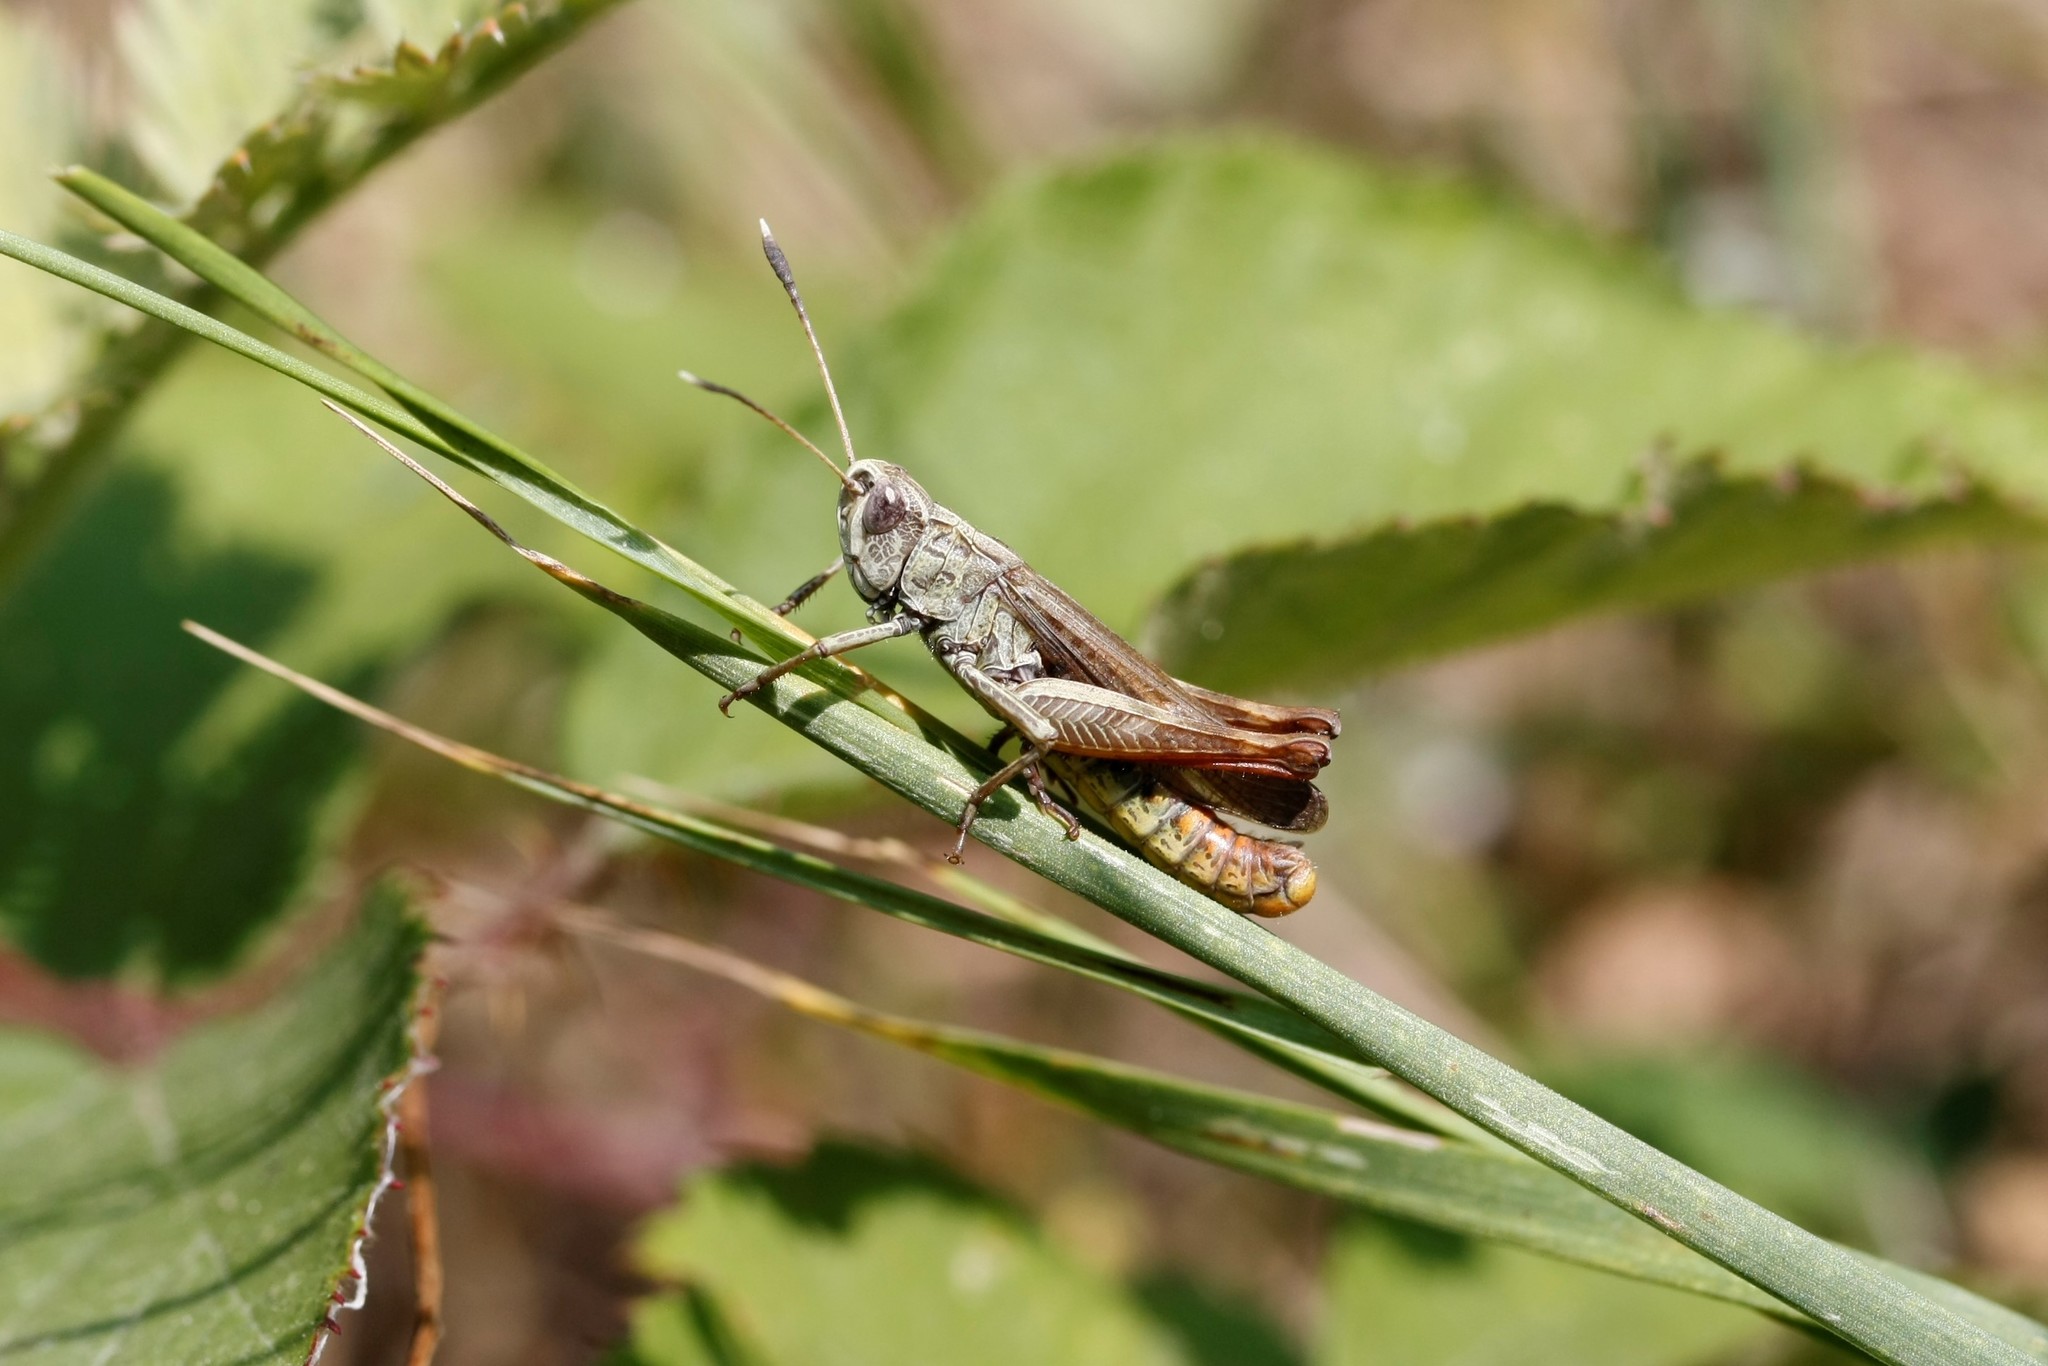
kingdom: Animalia
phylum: Arthropoda
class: Insecta
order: Orthoptera
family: Acrididae
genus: Gomphocerippus
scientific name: Gomphocerippus rufus
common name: Rufous grasshopper
